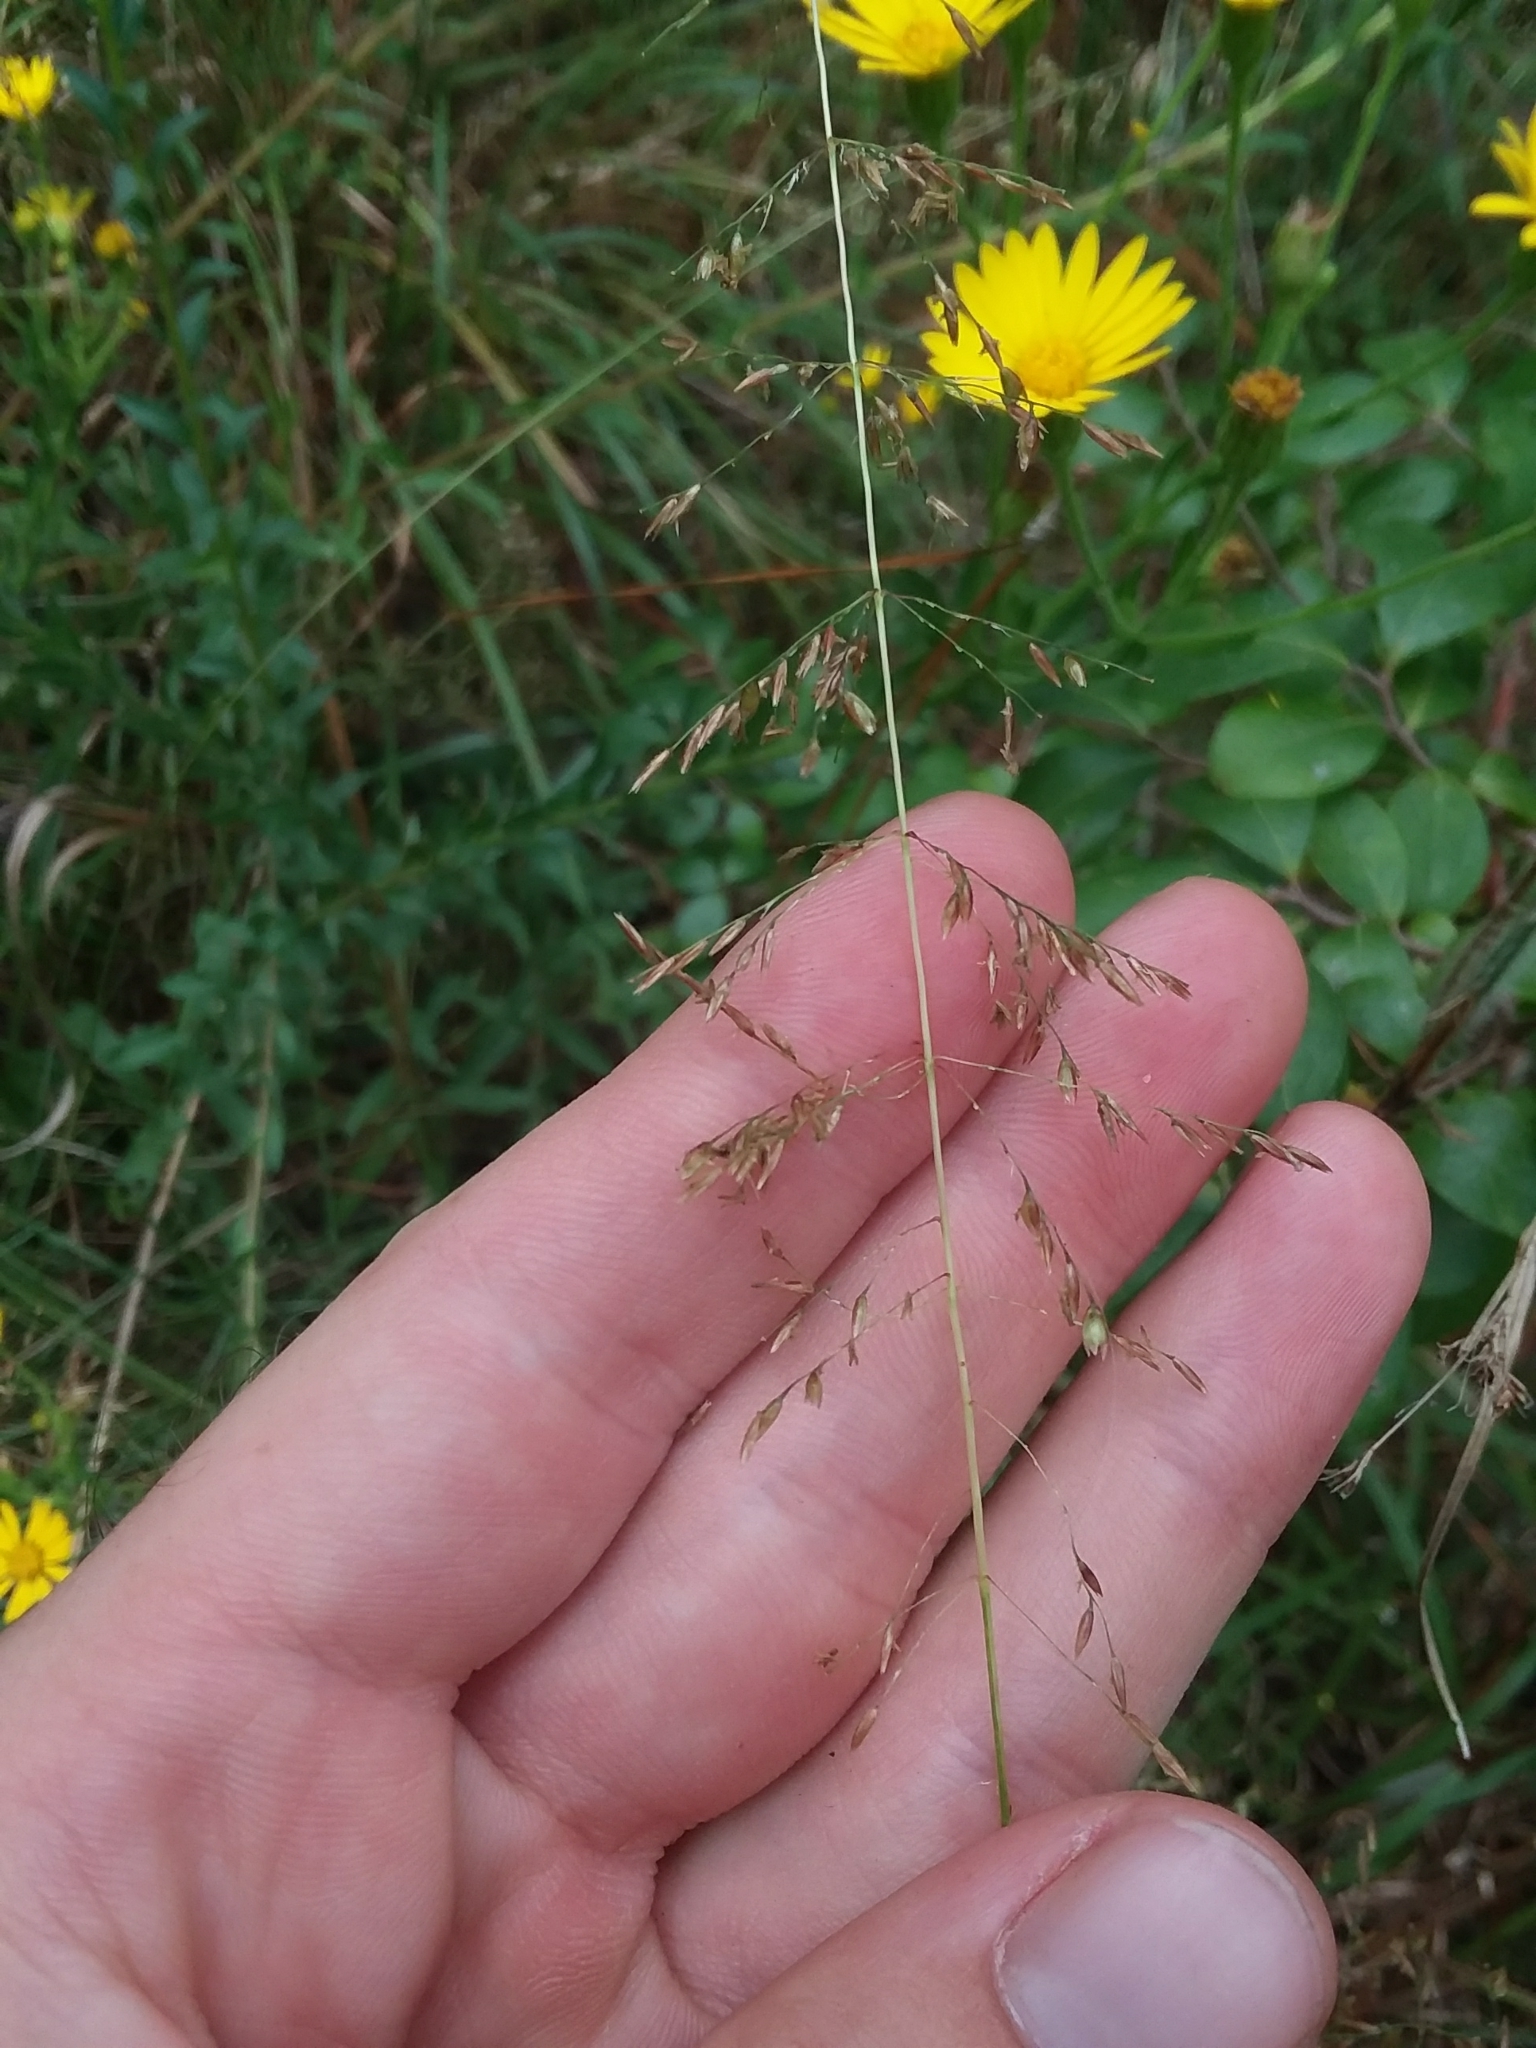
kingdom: Plantae
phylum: Tracheophyta
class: Liliopsida
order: Poales
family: Poaceae
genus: Sporobolus
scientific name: Sporobolus junceus
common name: Lizard grass
